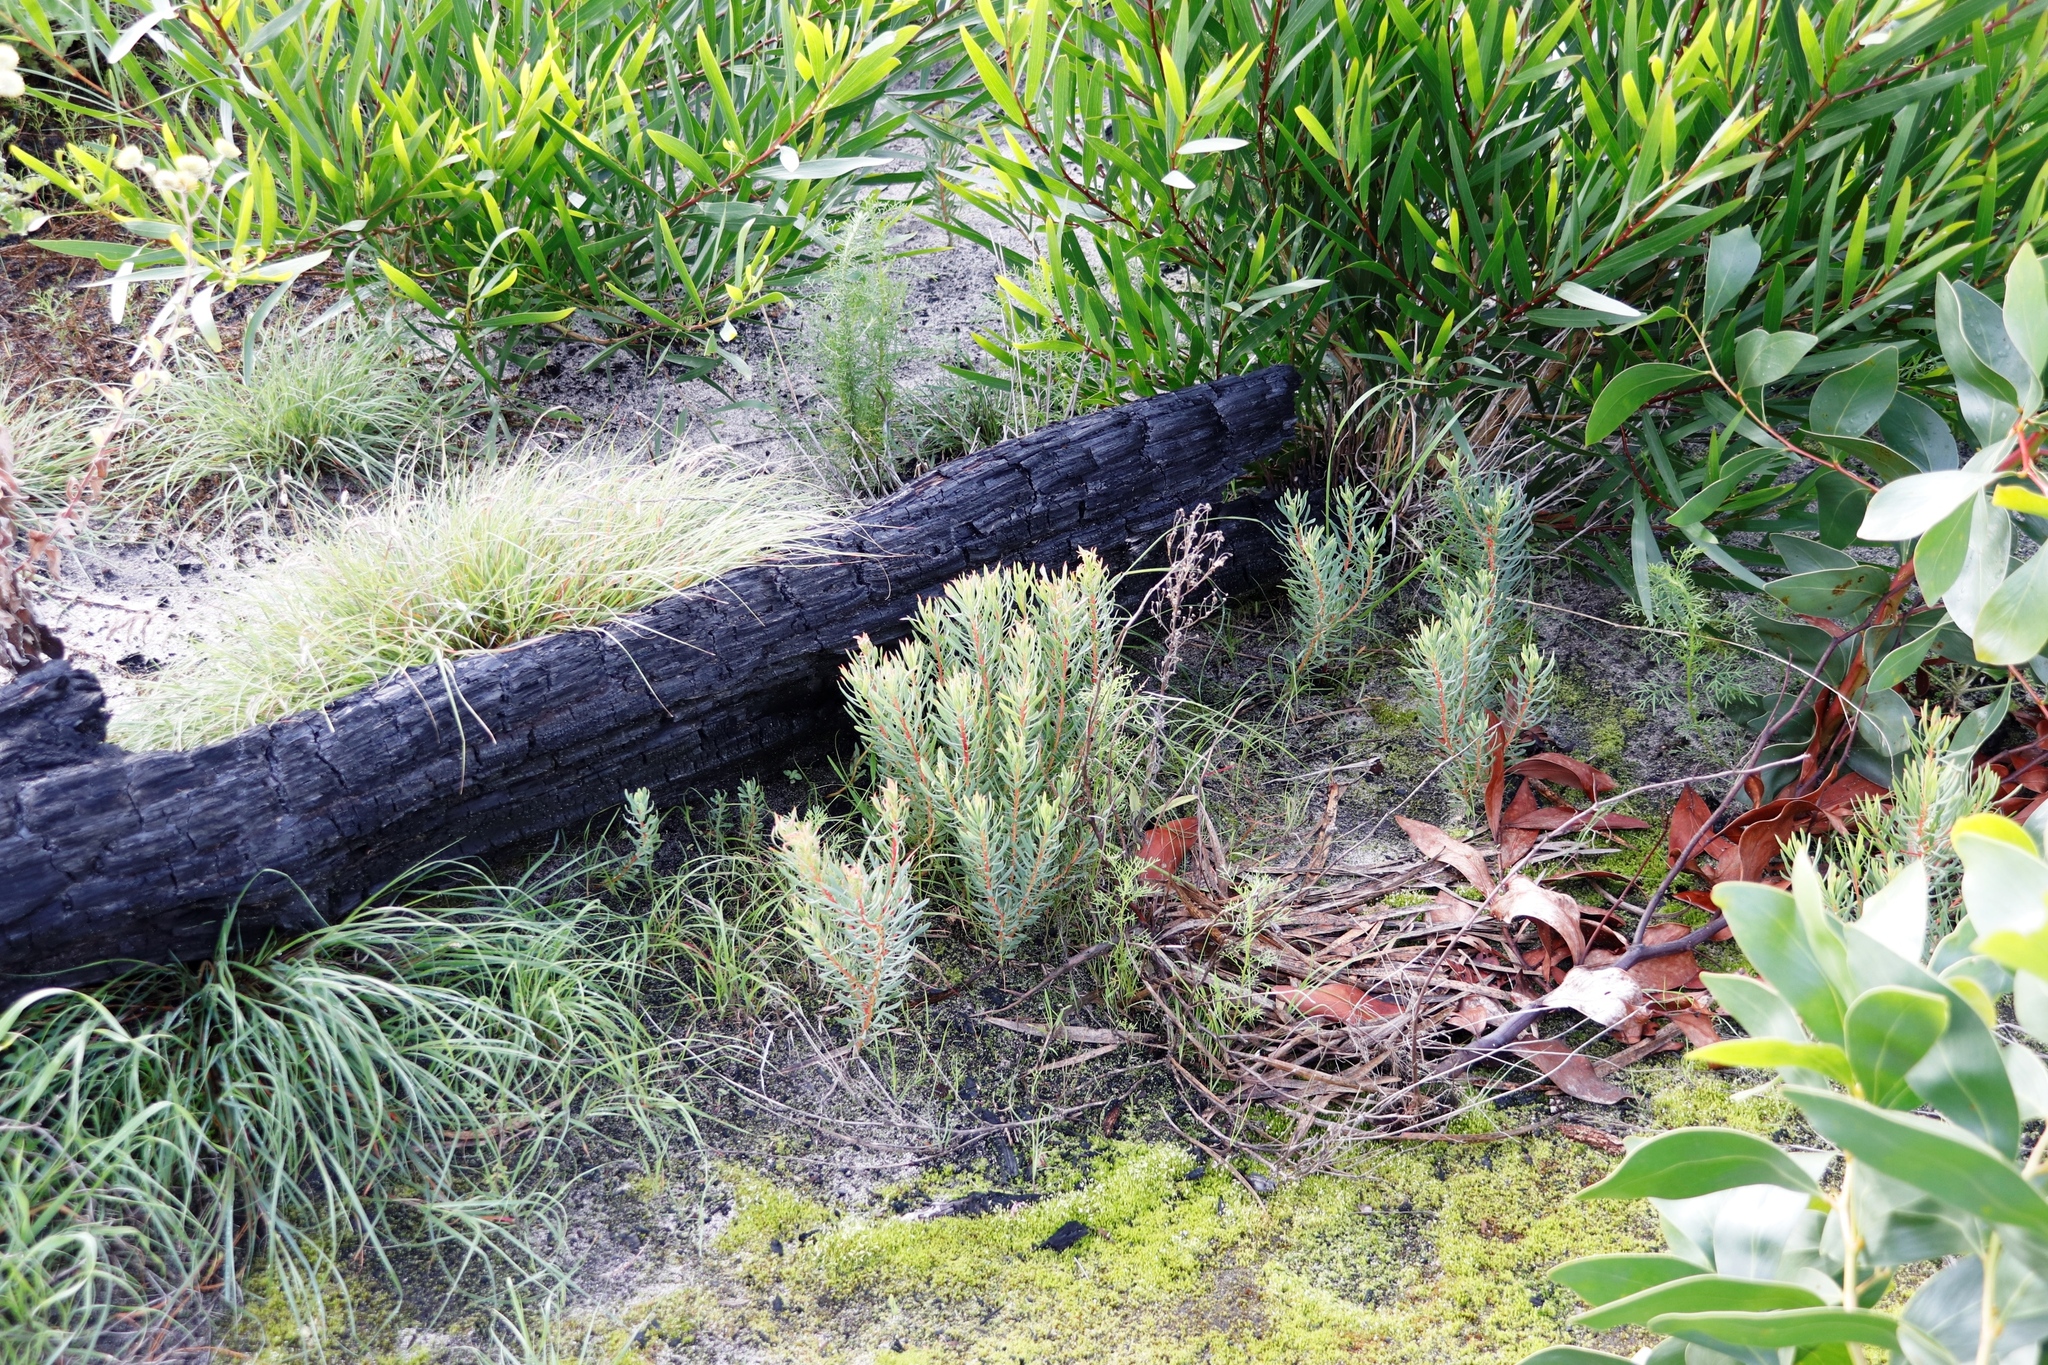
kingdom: Plantae
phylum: Tracheophyta
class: Magnoliopsida
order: Proteales
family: Proteaceae
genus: Protea
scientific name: Protea scolymocephala
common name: Thistle sugarbush
